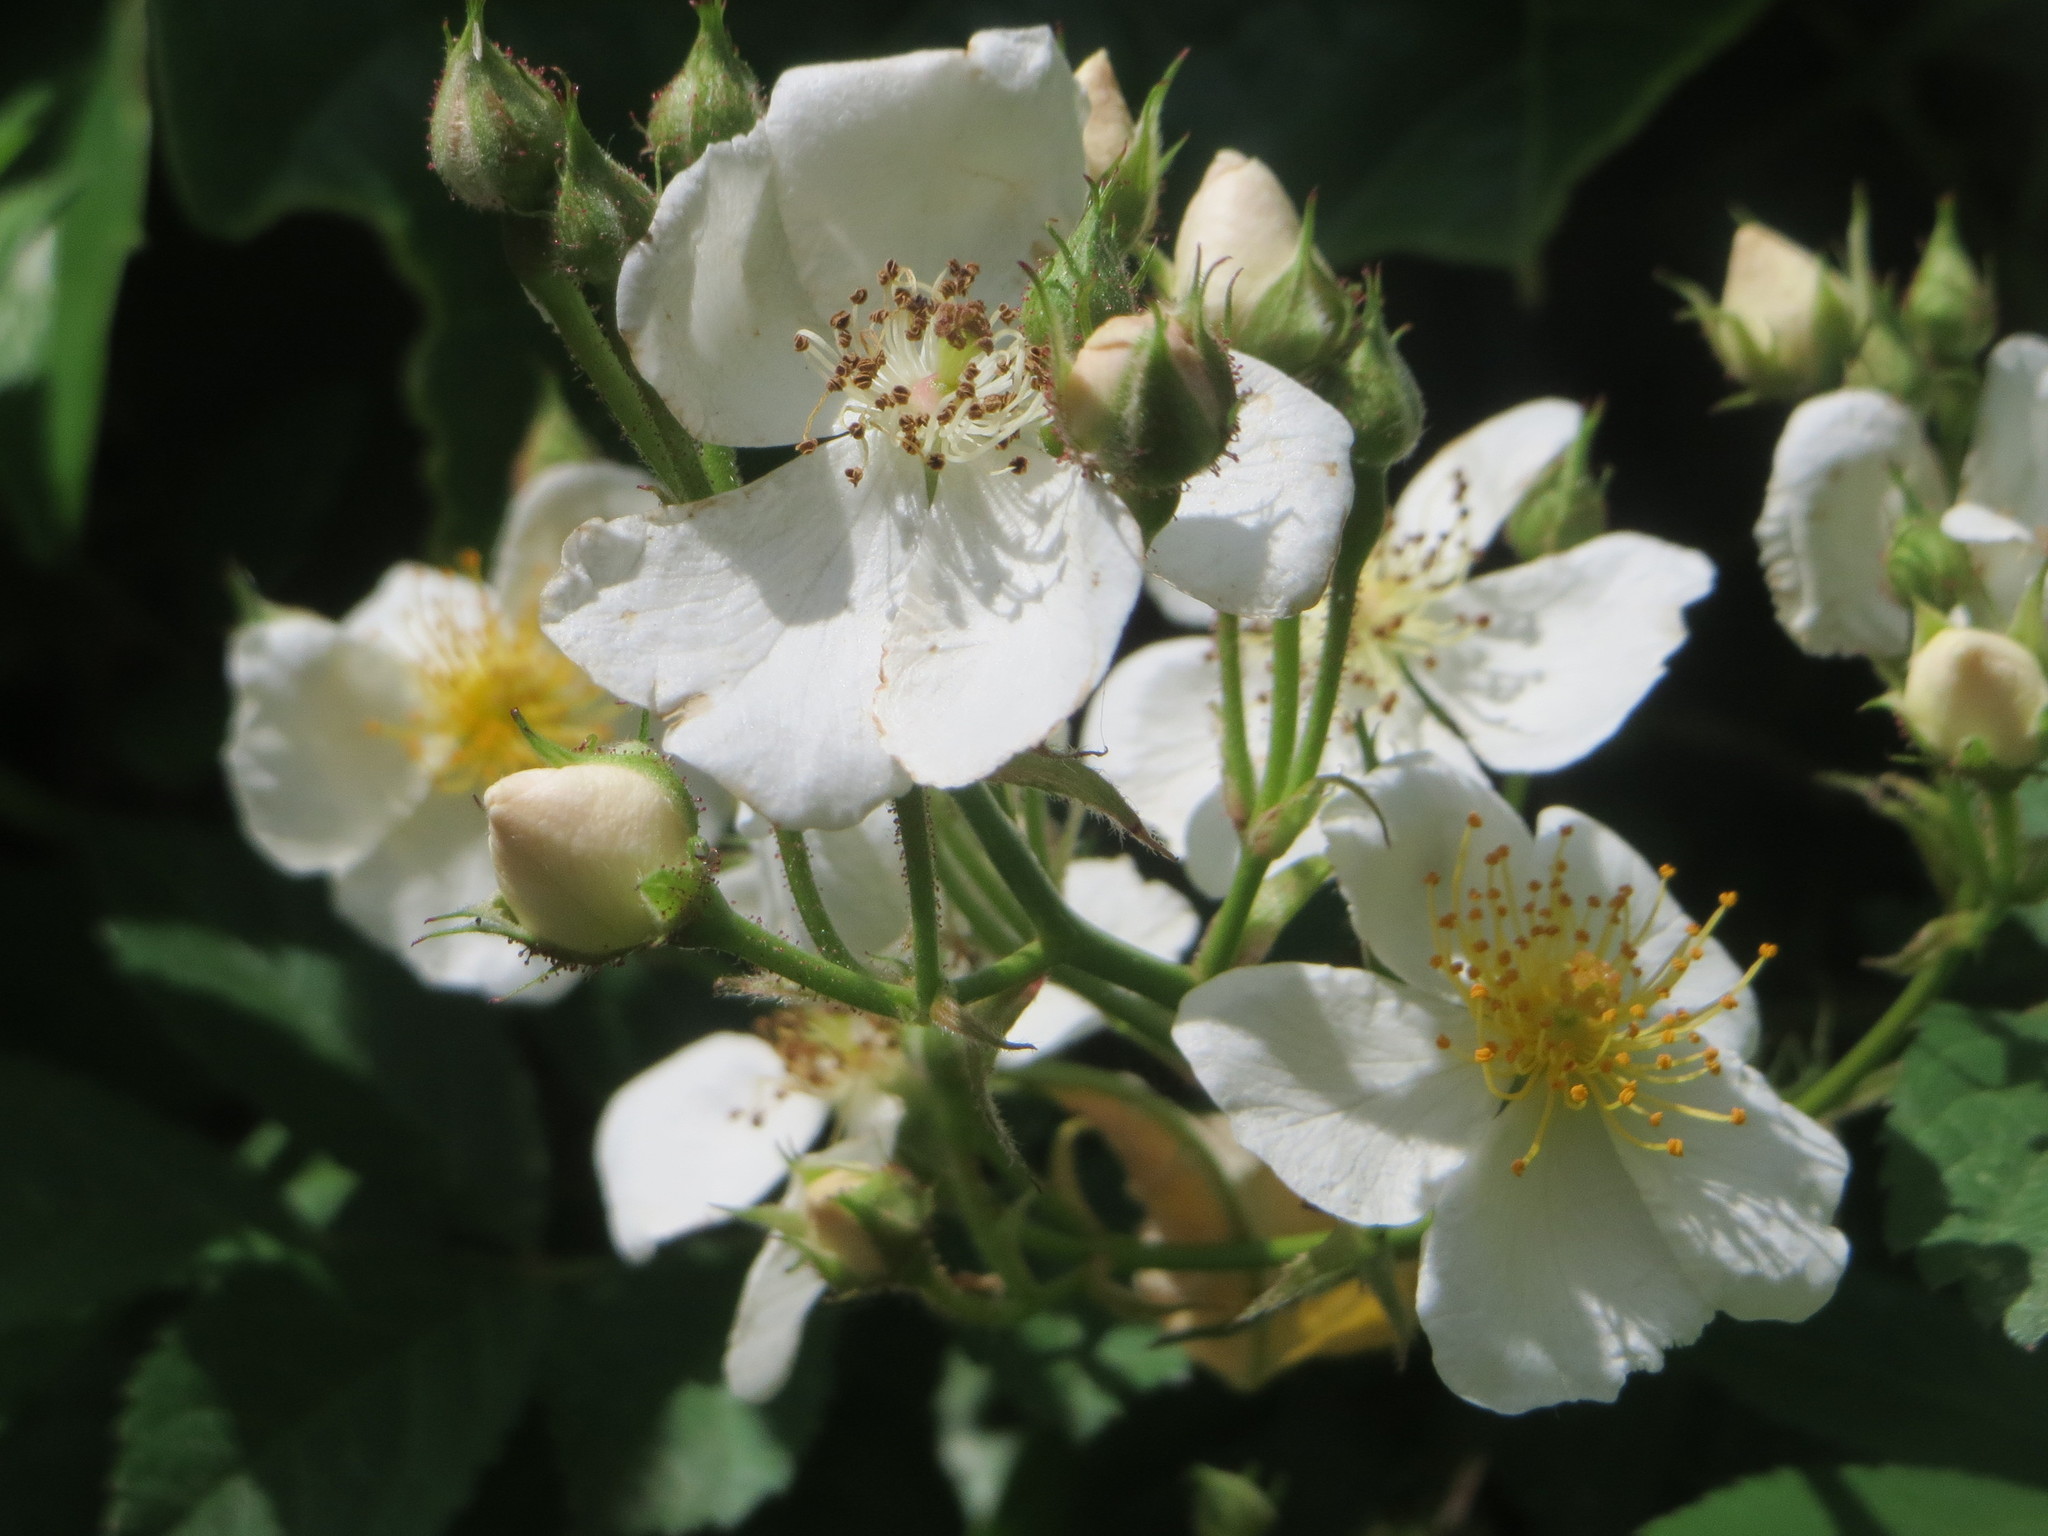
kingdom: Plantae
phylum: Tracheophyta
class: Magnoliopsida
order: Rosales
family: Rosaceae
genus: Rosa
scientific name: Rosa multiflora
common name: Multiflora rose
